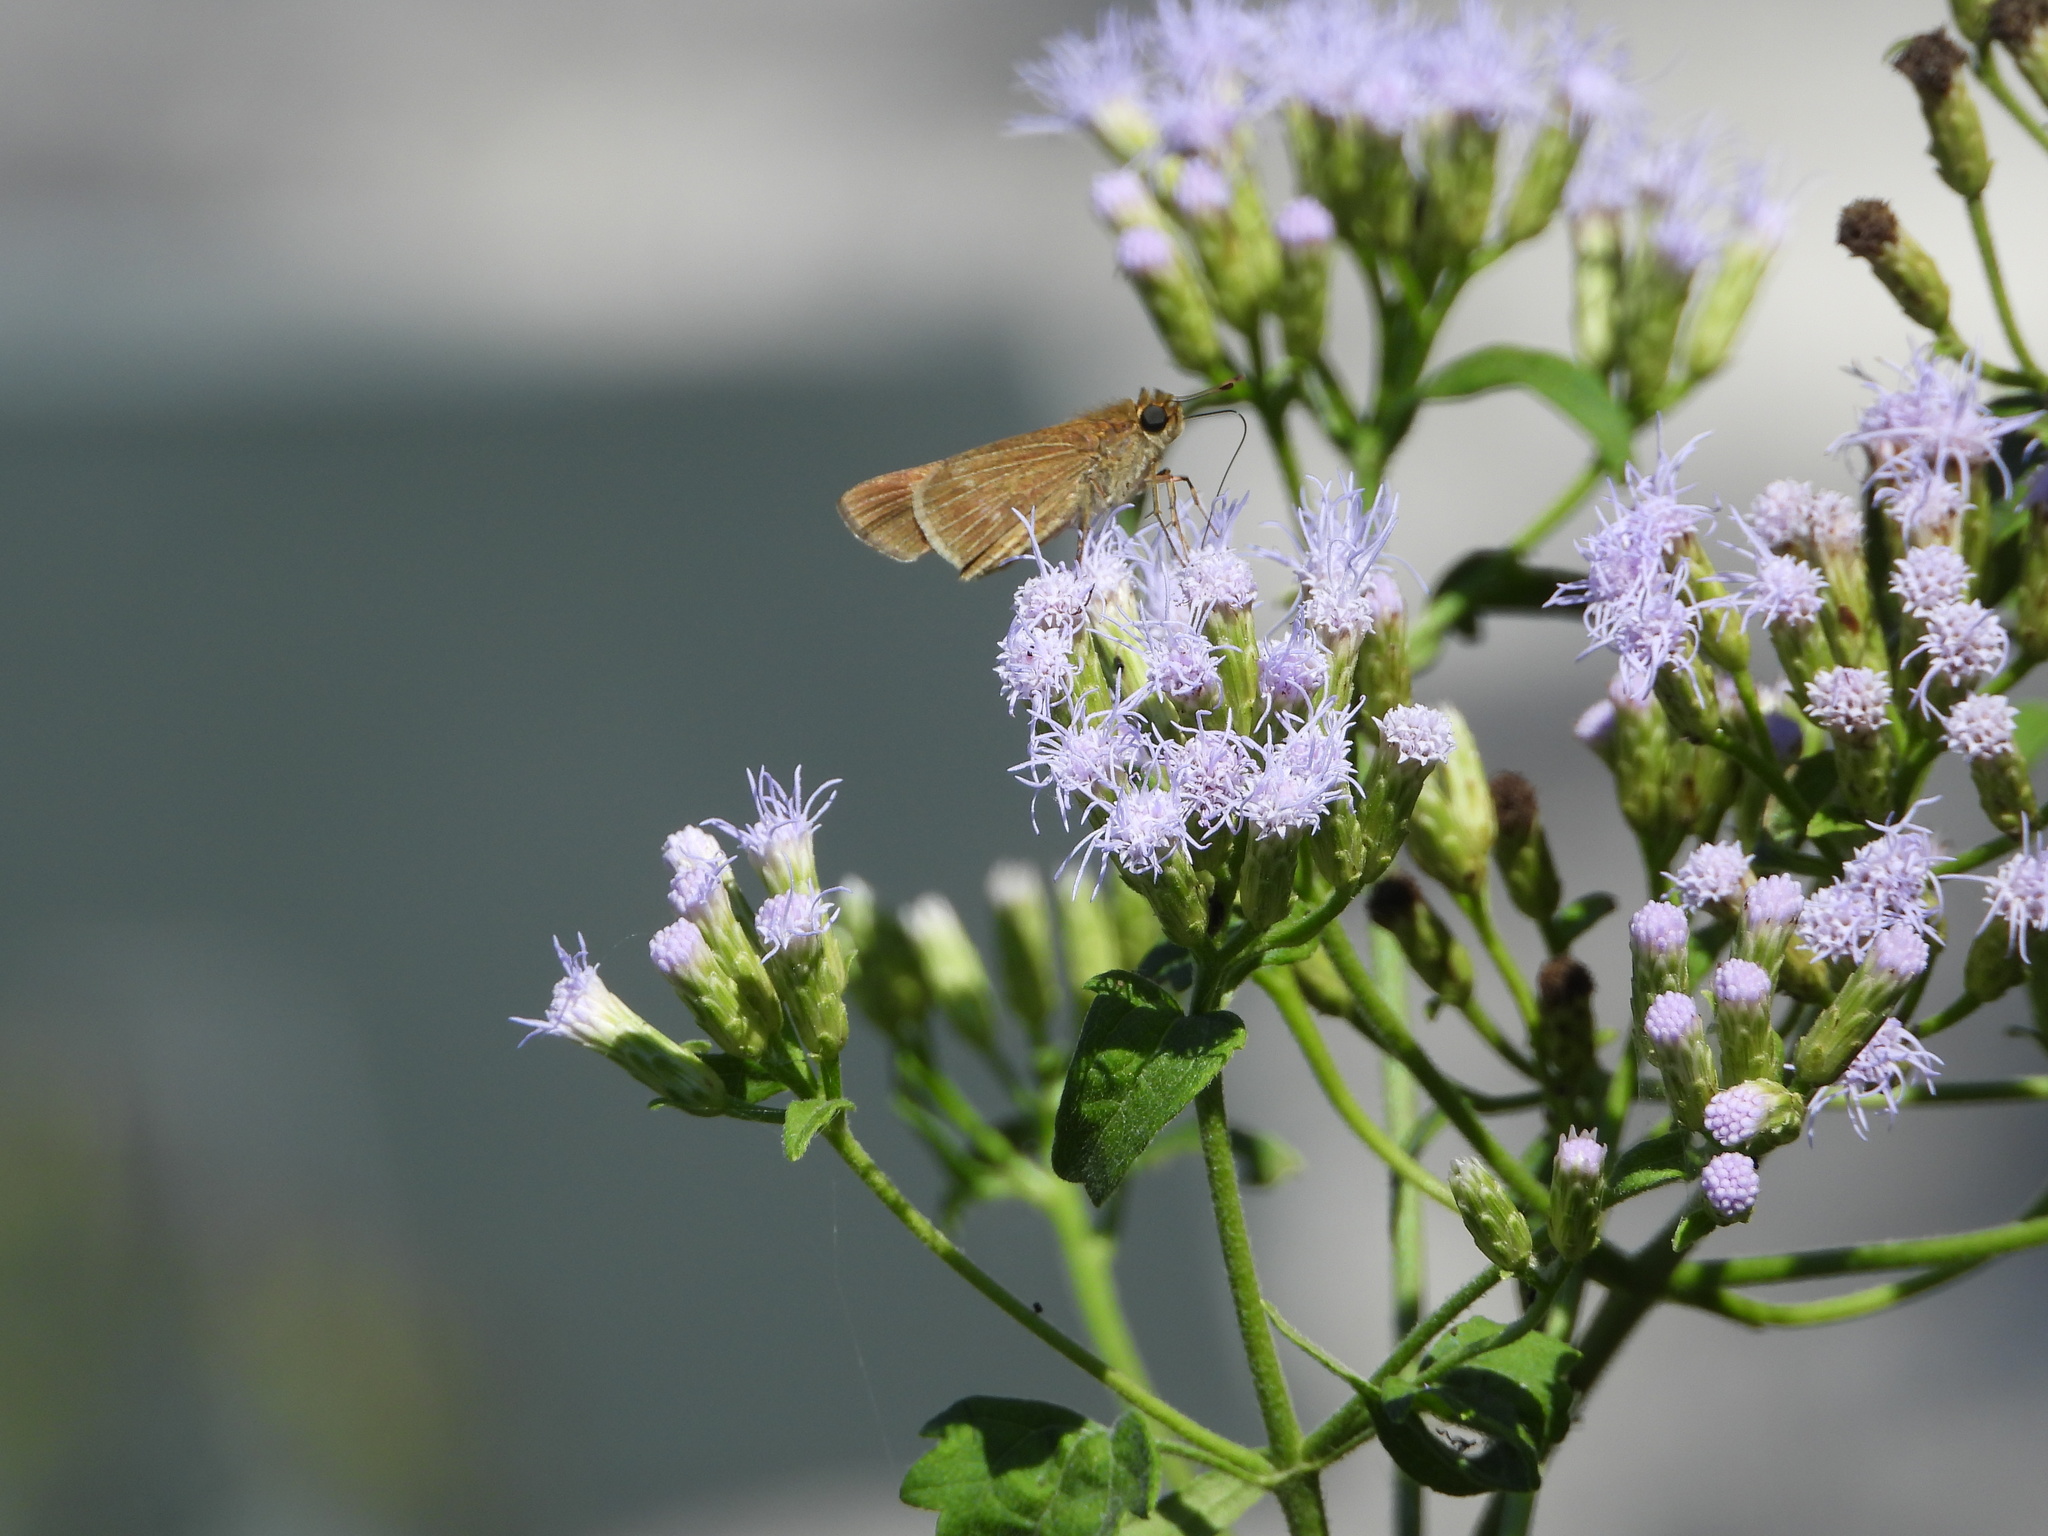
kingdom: Animalia
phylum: Arthropoda
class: Insecta
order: Lepidoptera
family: Hesperiidae
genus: Panoquina
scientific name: Panoquina ocola
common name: Ocola skipper
